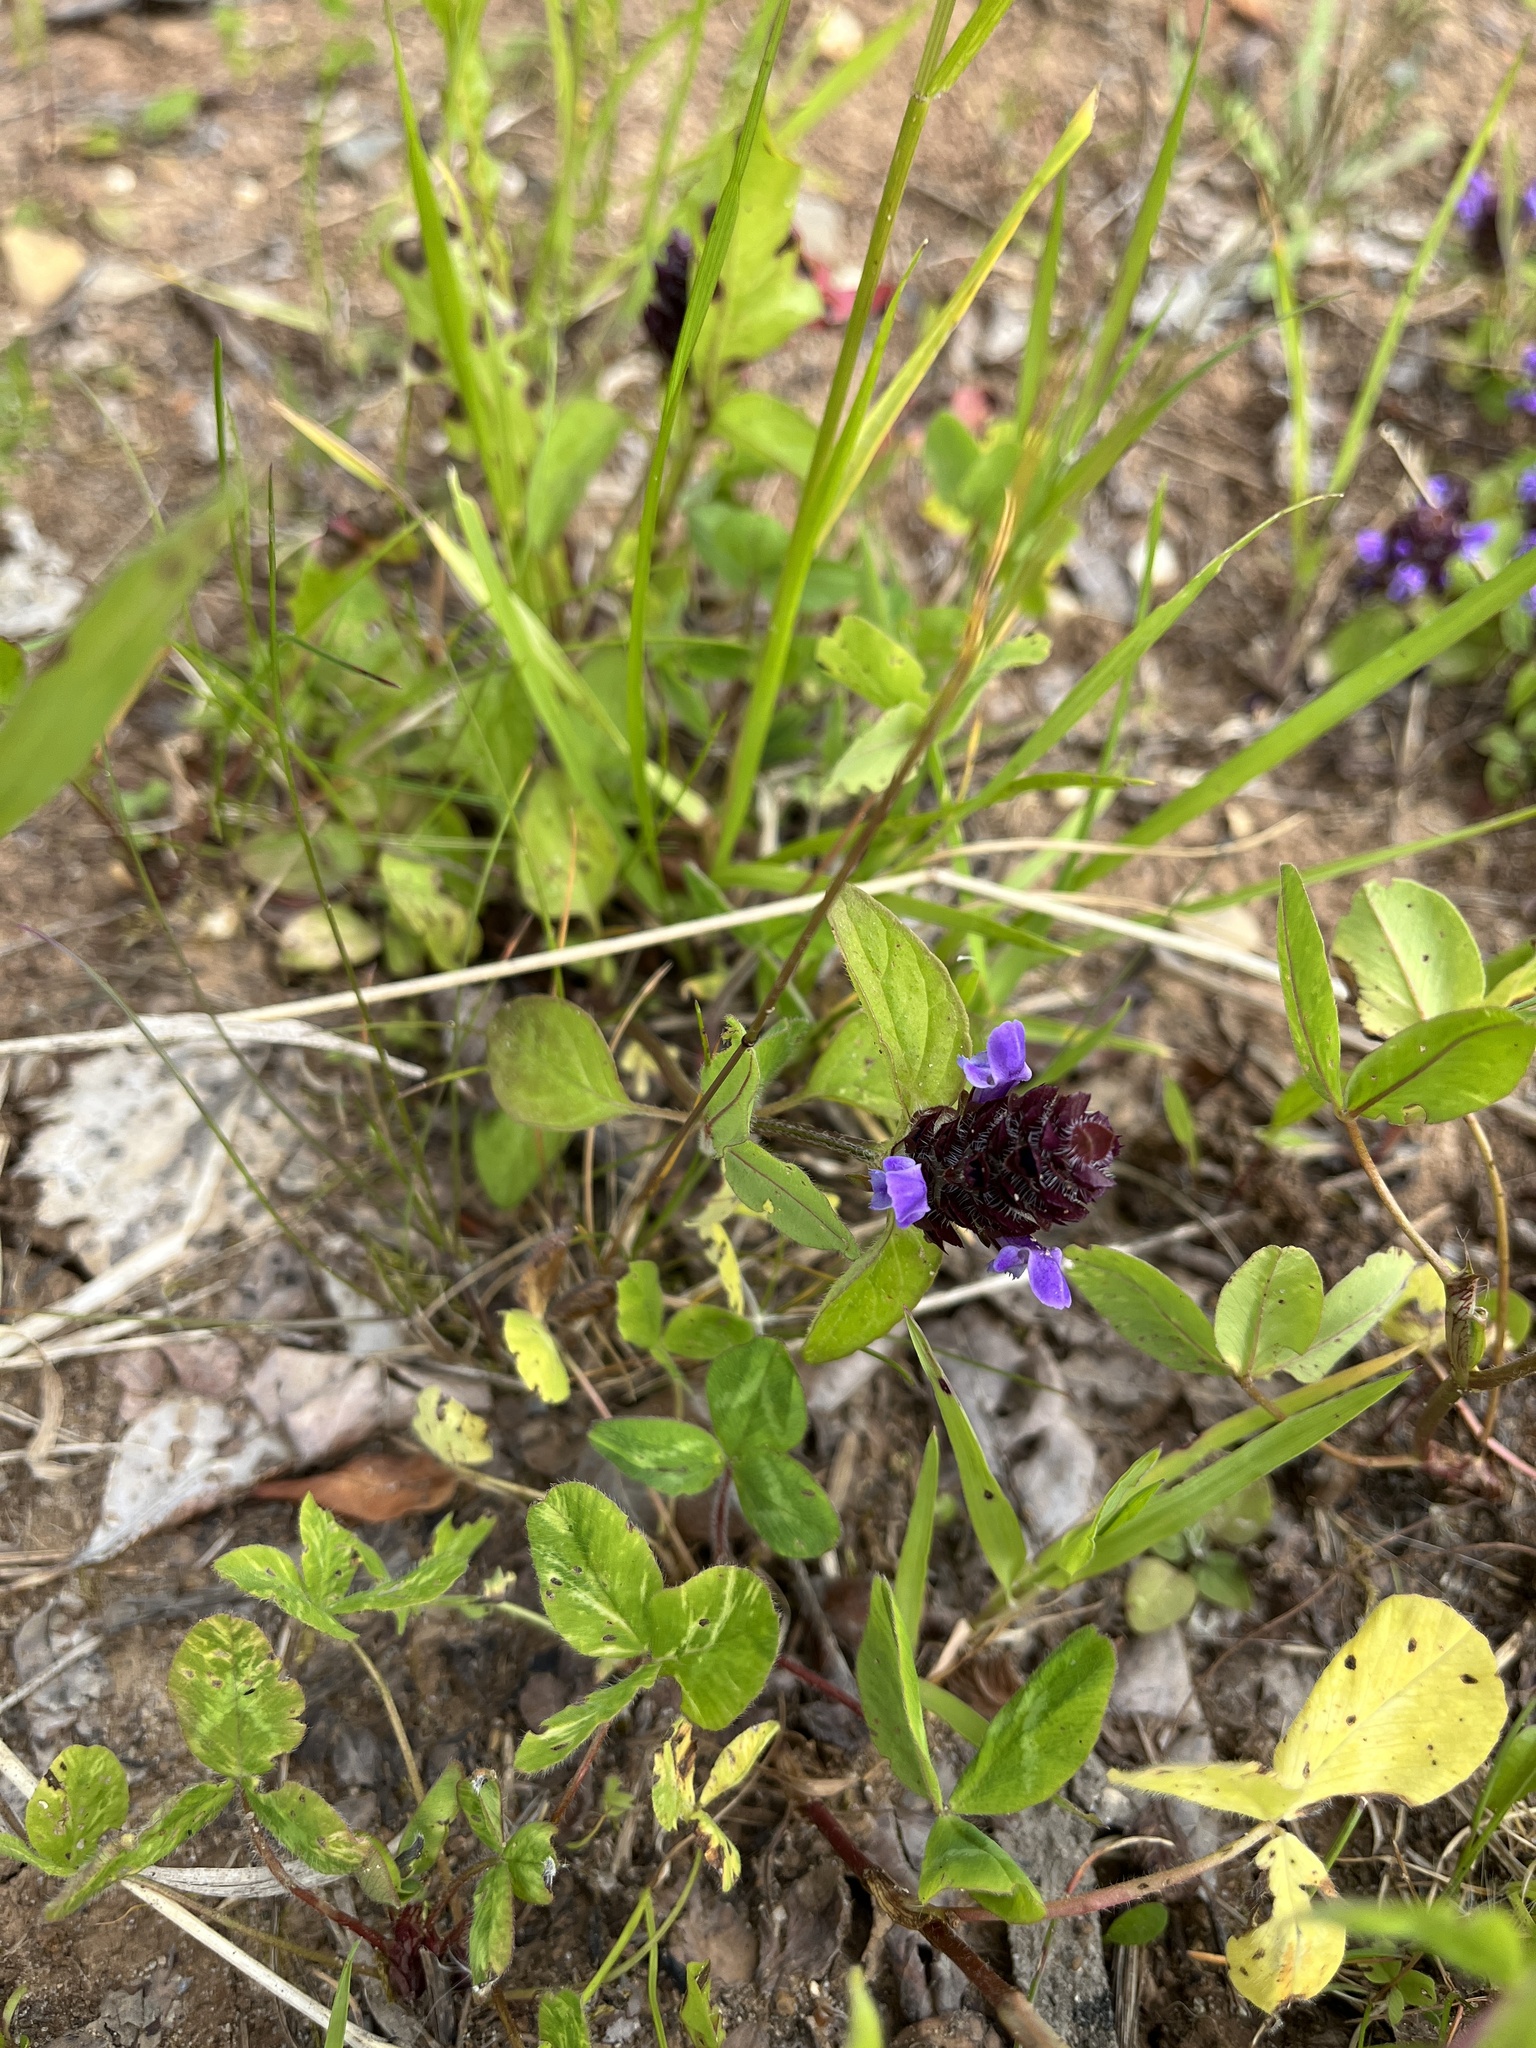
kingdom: Plantae
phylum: Tracheophyta
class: Magnoliopsida
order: Lamiales
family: Lamiaceae
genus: Prunella
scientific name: Prunella vulgaris
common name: Heal-all
